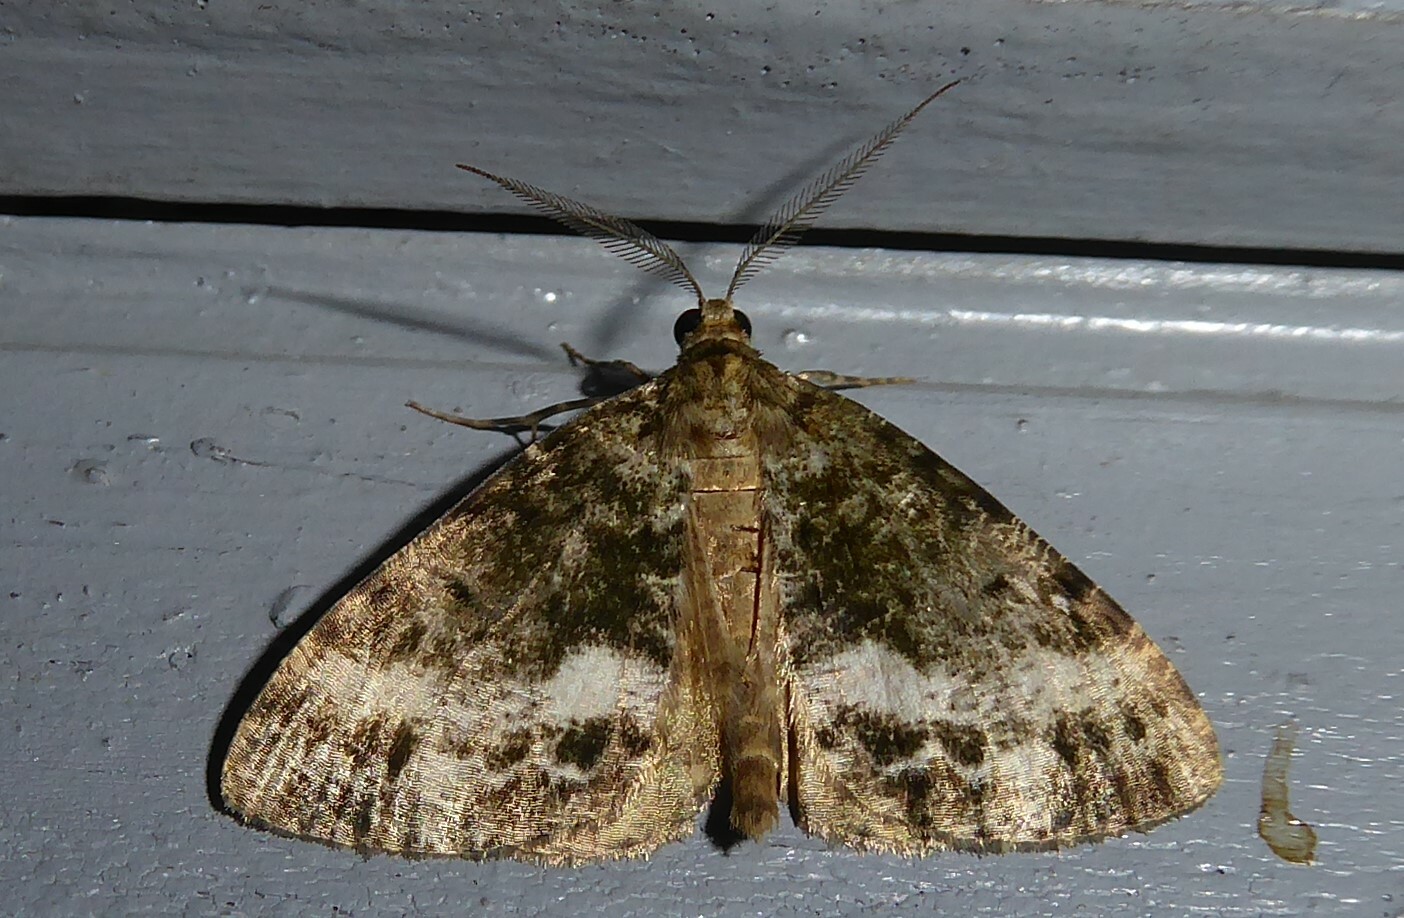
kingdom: Animalia
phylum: Arthropoda
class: Insecta
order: Lepidoptera
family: Geometridae
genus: Pseudocoremia
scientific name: Pseudocoremia lactiflua
